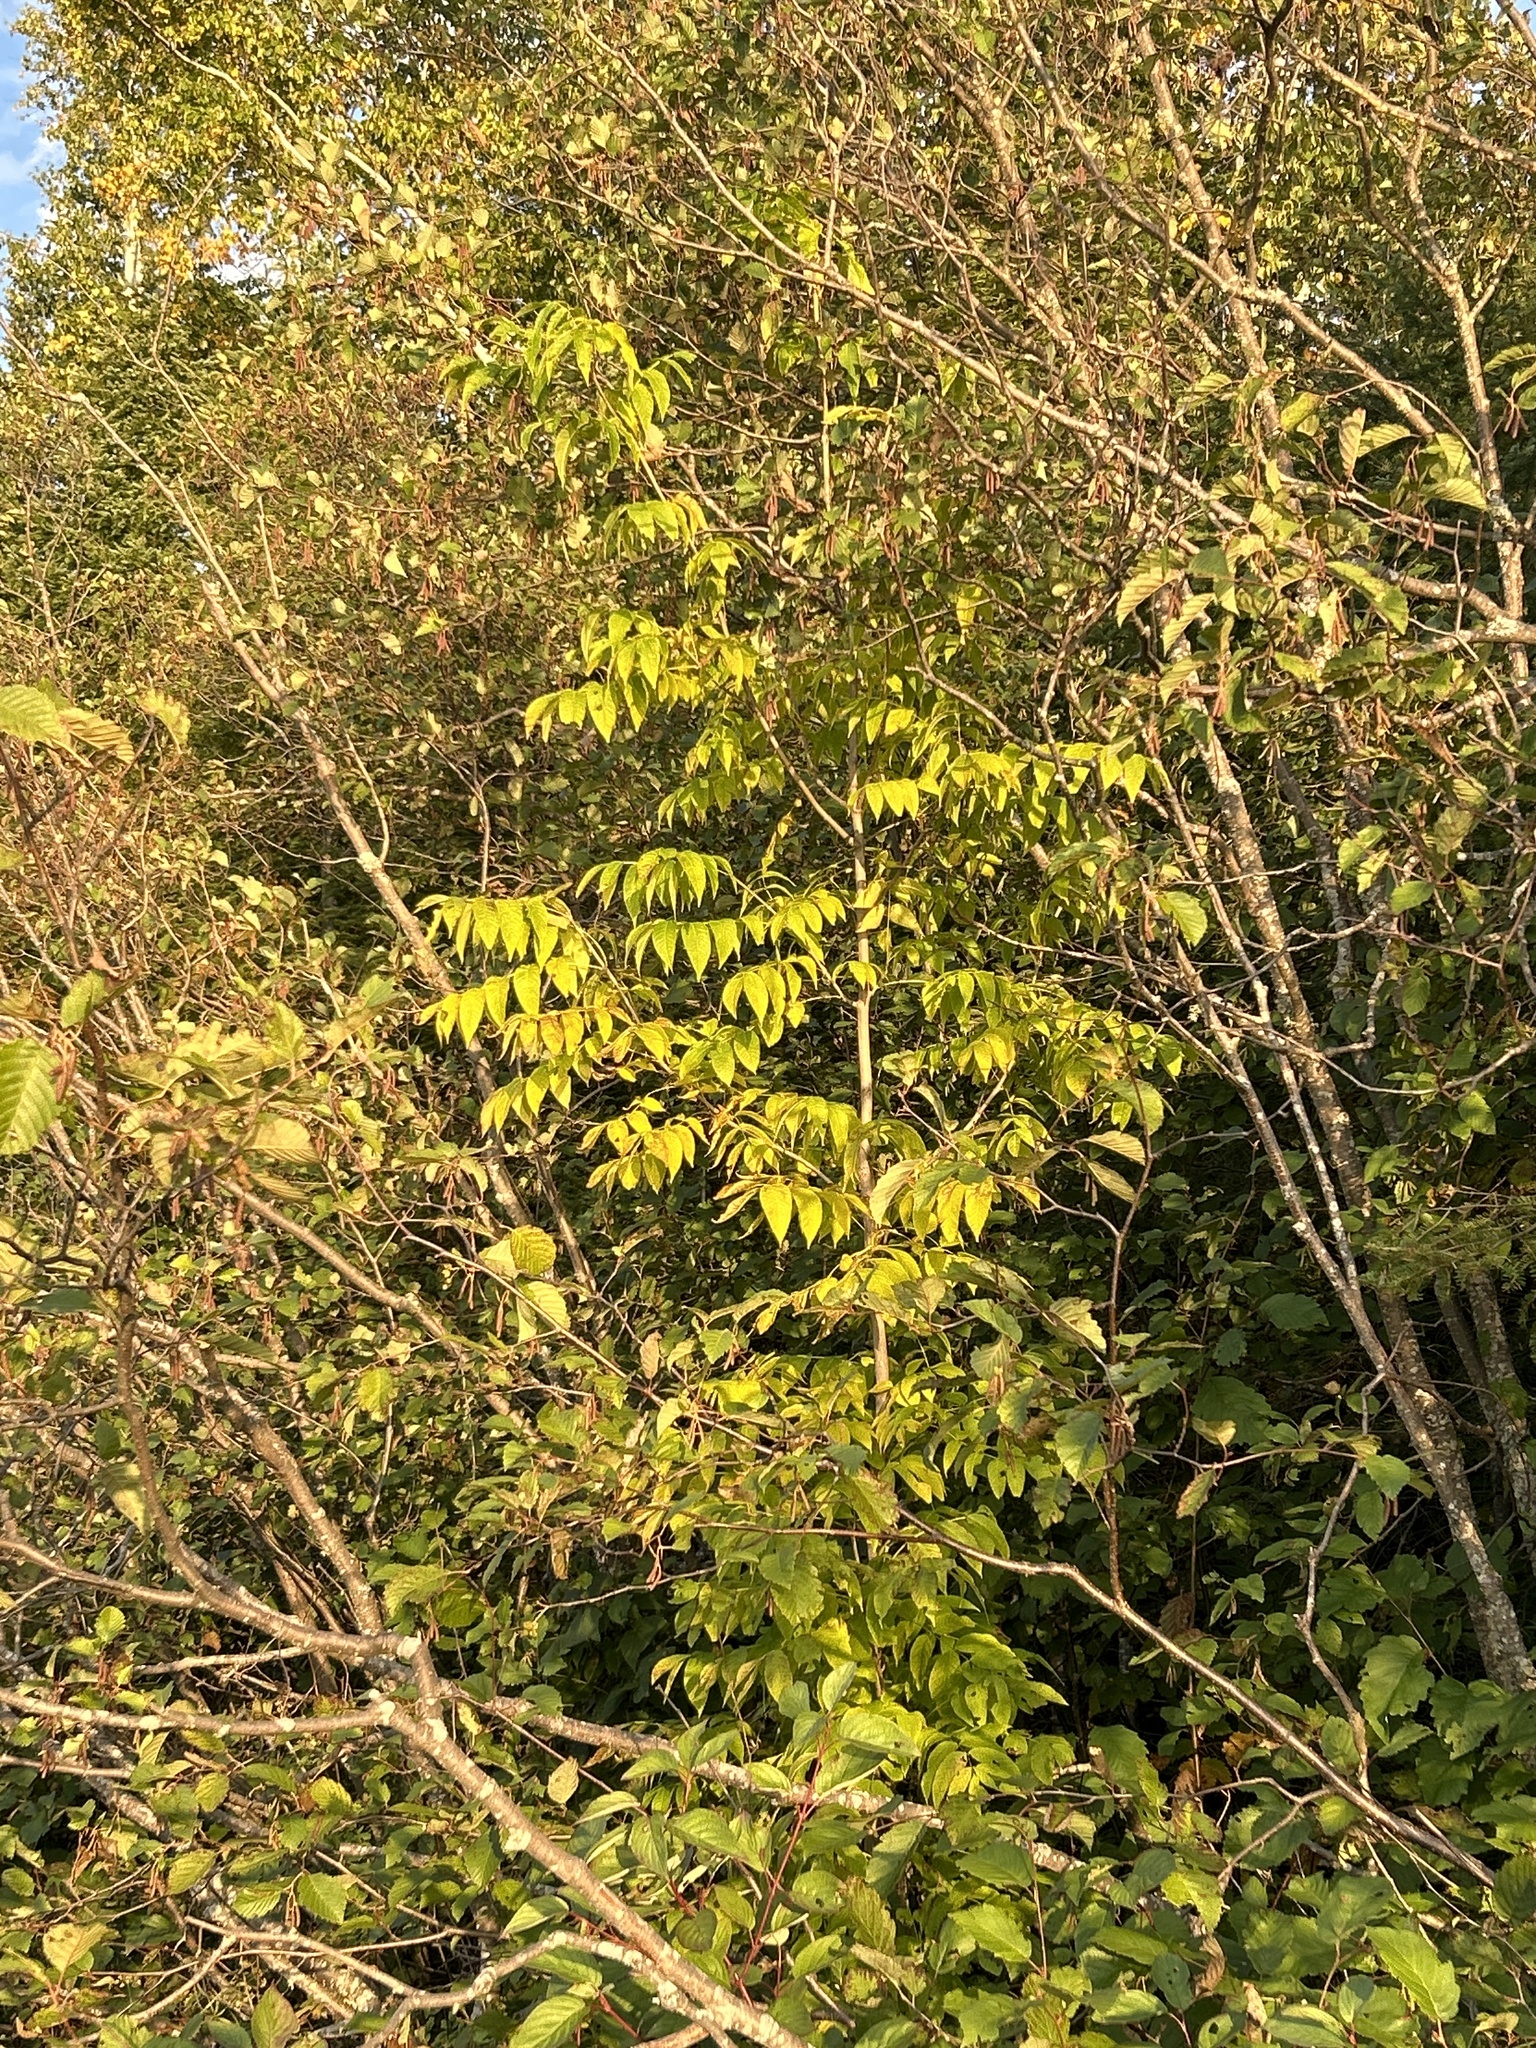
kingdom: Plantae
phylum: Tracheophyta
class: Magnoliopsida
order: Lamiales
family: Oleaceae
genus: Fraxinus
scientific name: Fraxinus nigra
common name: Black ash
